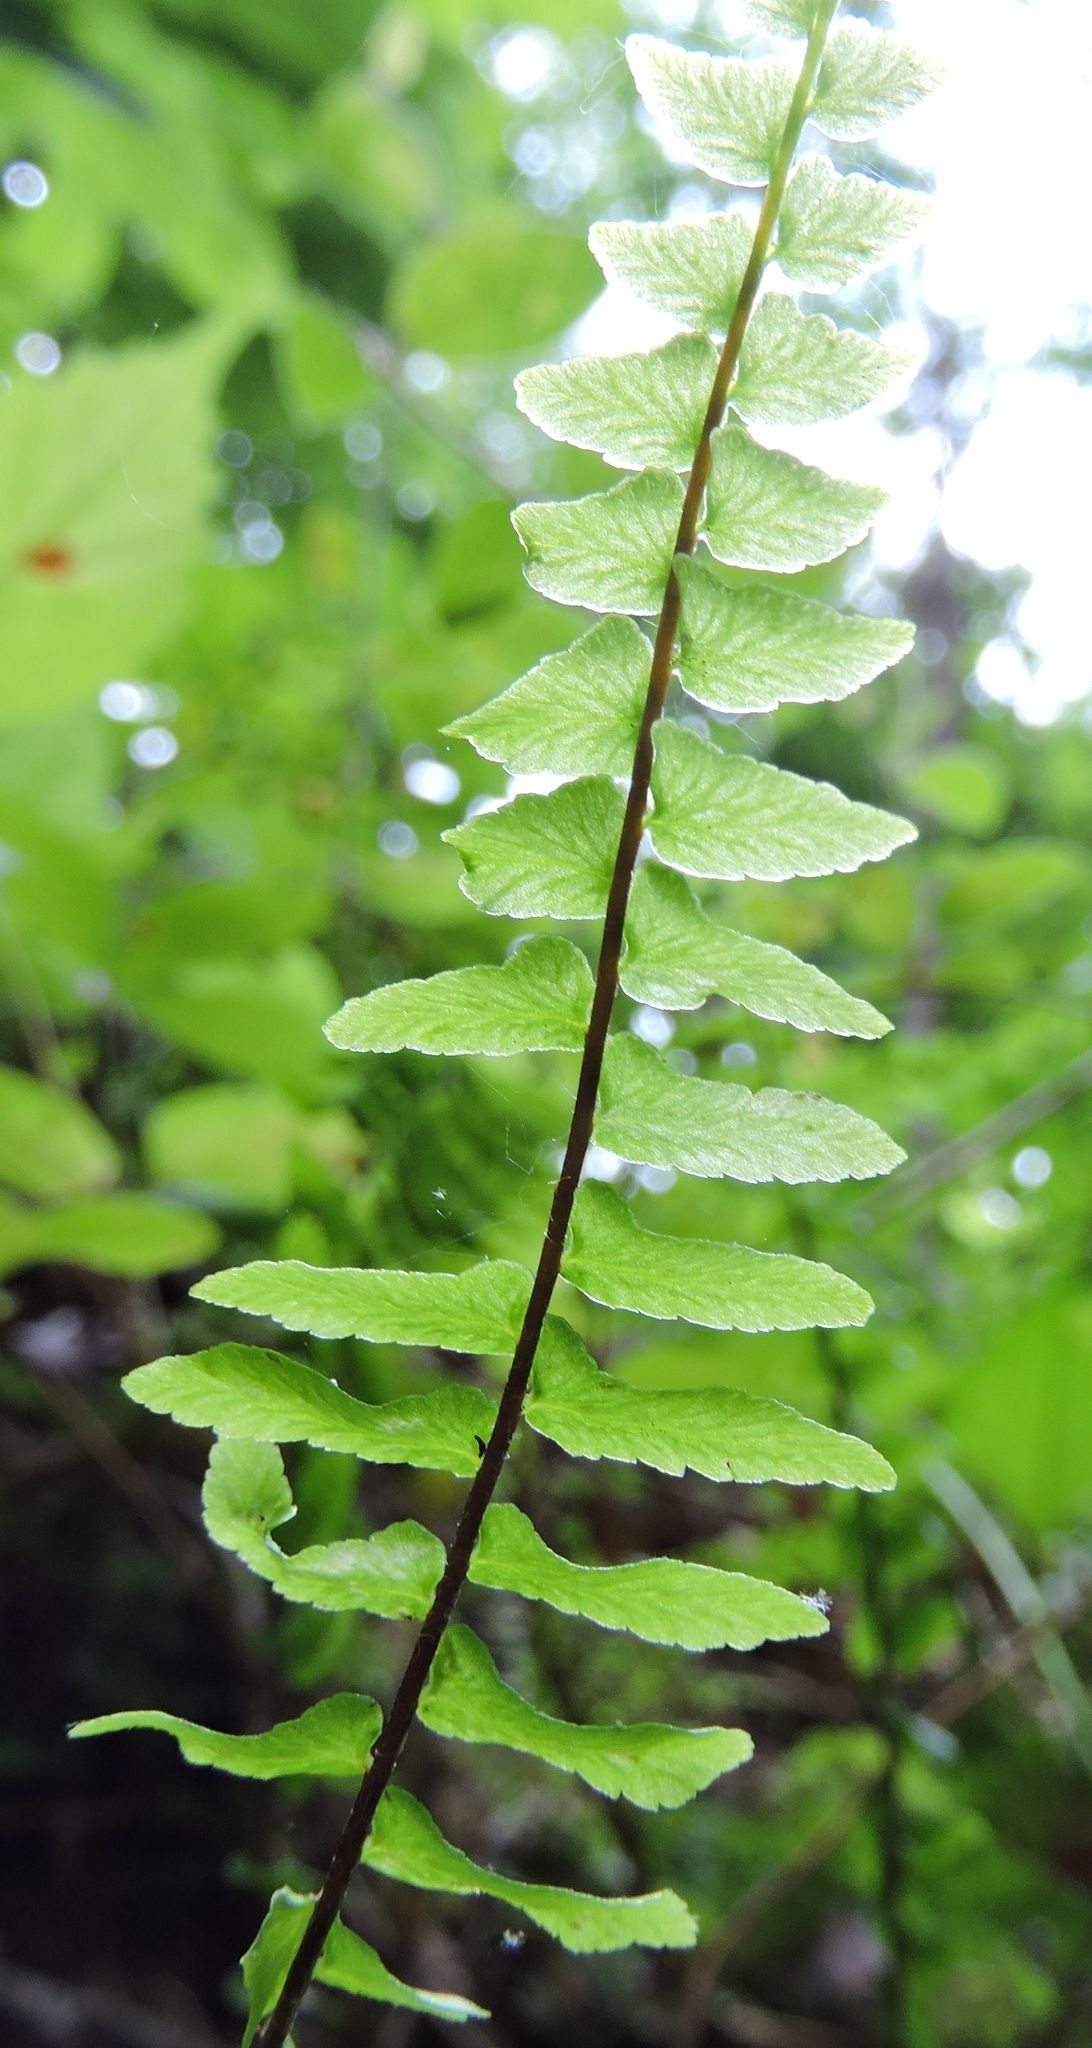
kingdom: Plantae
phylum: Tracheophyta
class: Polypodiopsida
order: Polypodiales
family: Aspleniaceae
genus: Asplenium
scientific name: Asplenium platyneuron
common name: Ebony spleenwort
